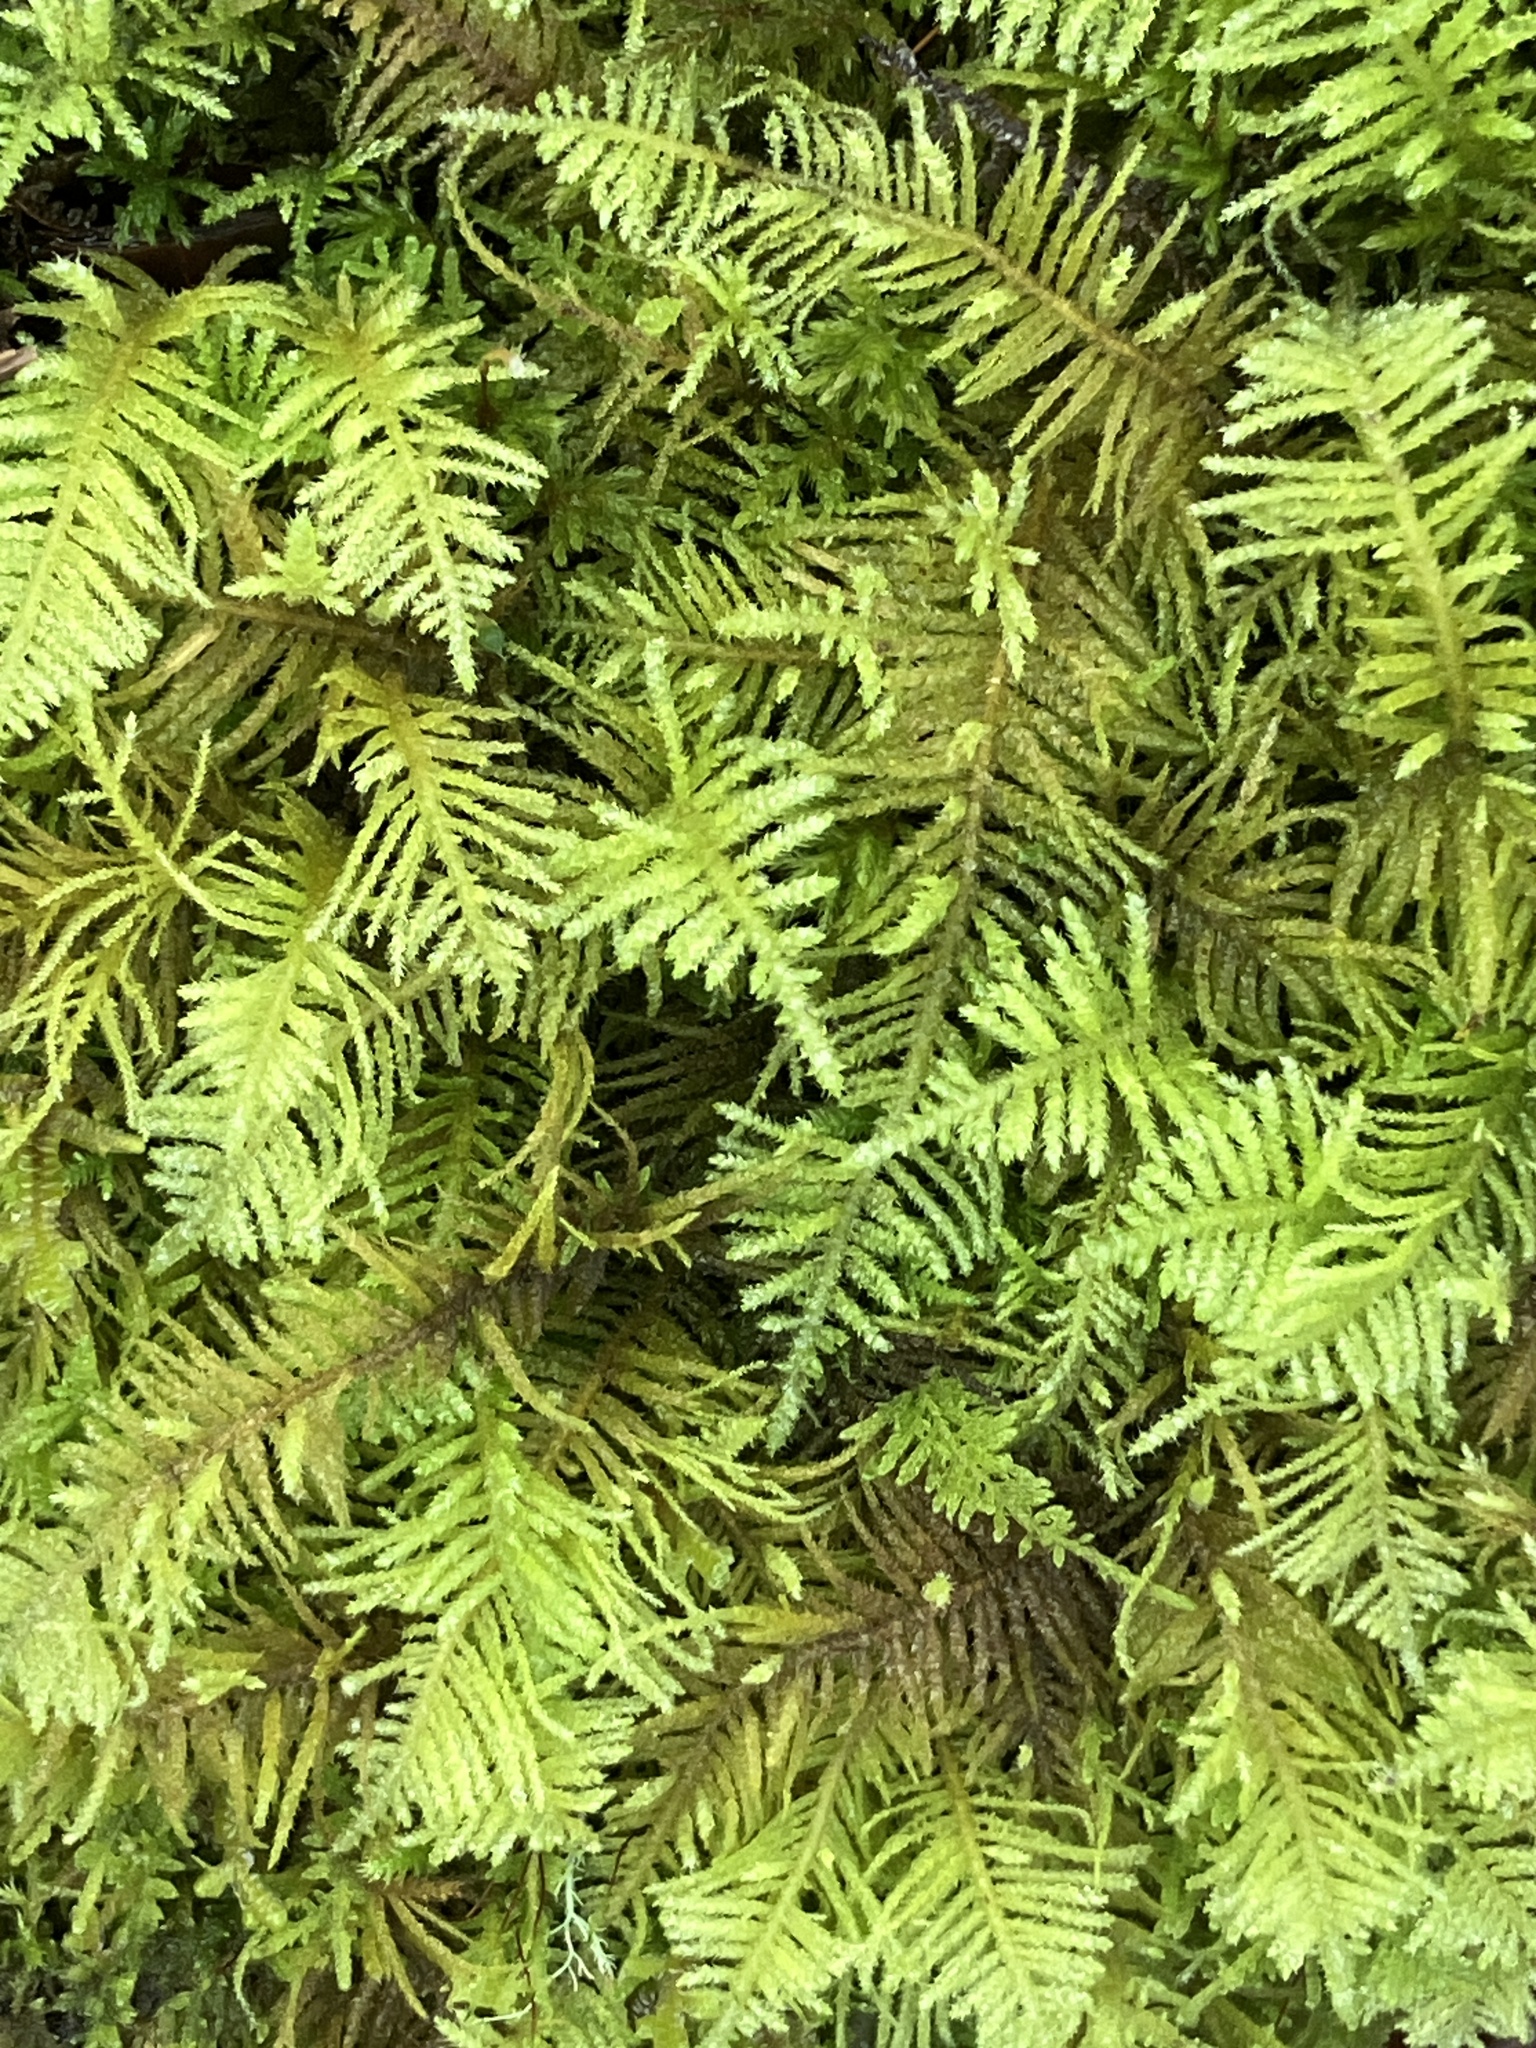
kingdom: Plantae
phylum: Bryophyta
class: Bryopsida
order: Hypnales
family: Brachytheciaceae
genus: Kindbergia
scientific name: Kindbergia oregana
